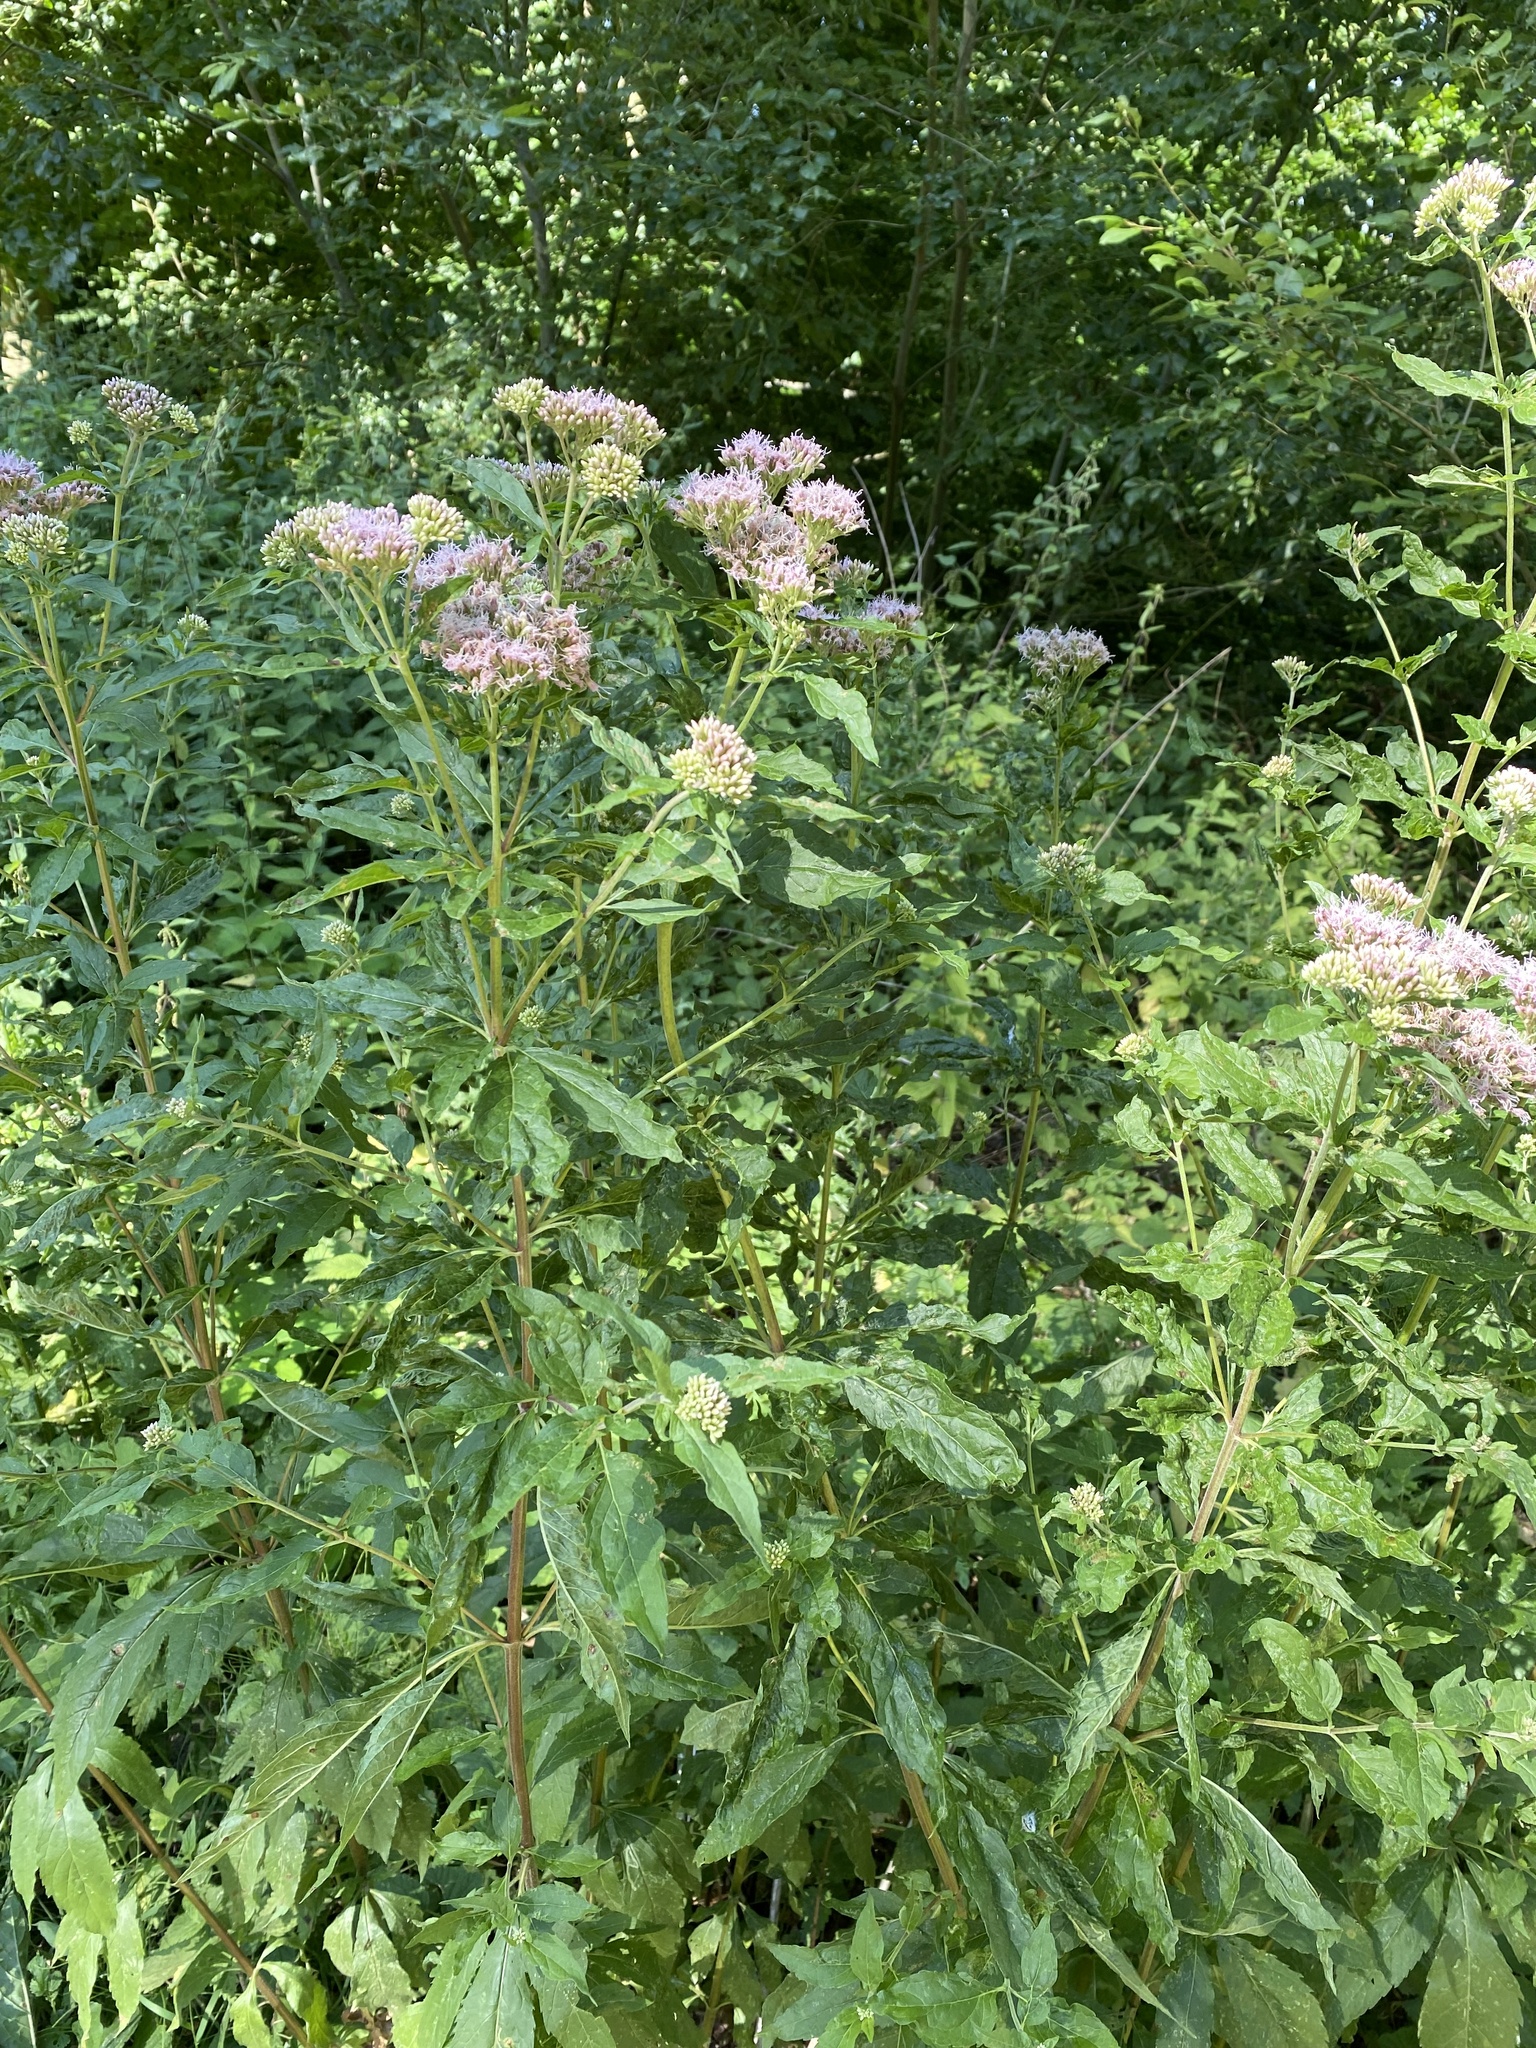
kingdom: Plantae
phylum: Tracheophyta
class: Magnoliopsida
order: Asterales
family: Asteraceae
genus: Eupatorium
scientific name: Eupatorium cannabinum
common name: Hemp-agrimony
